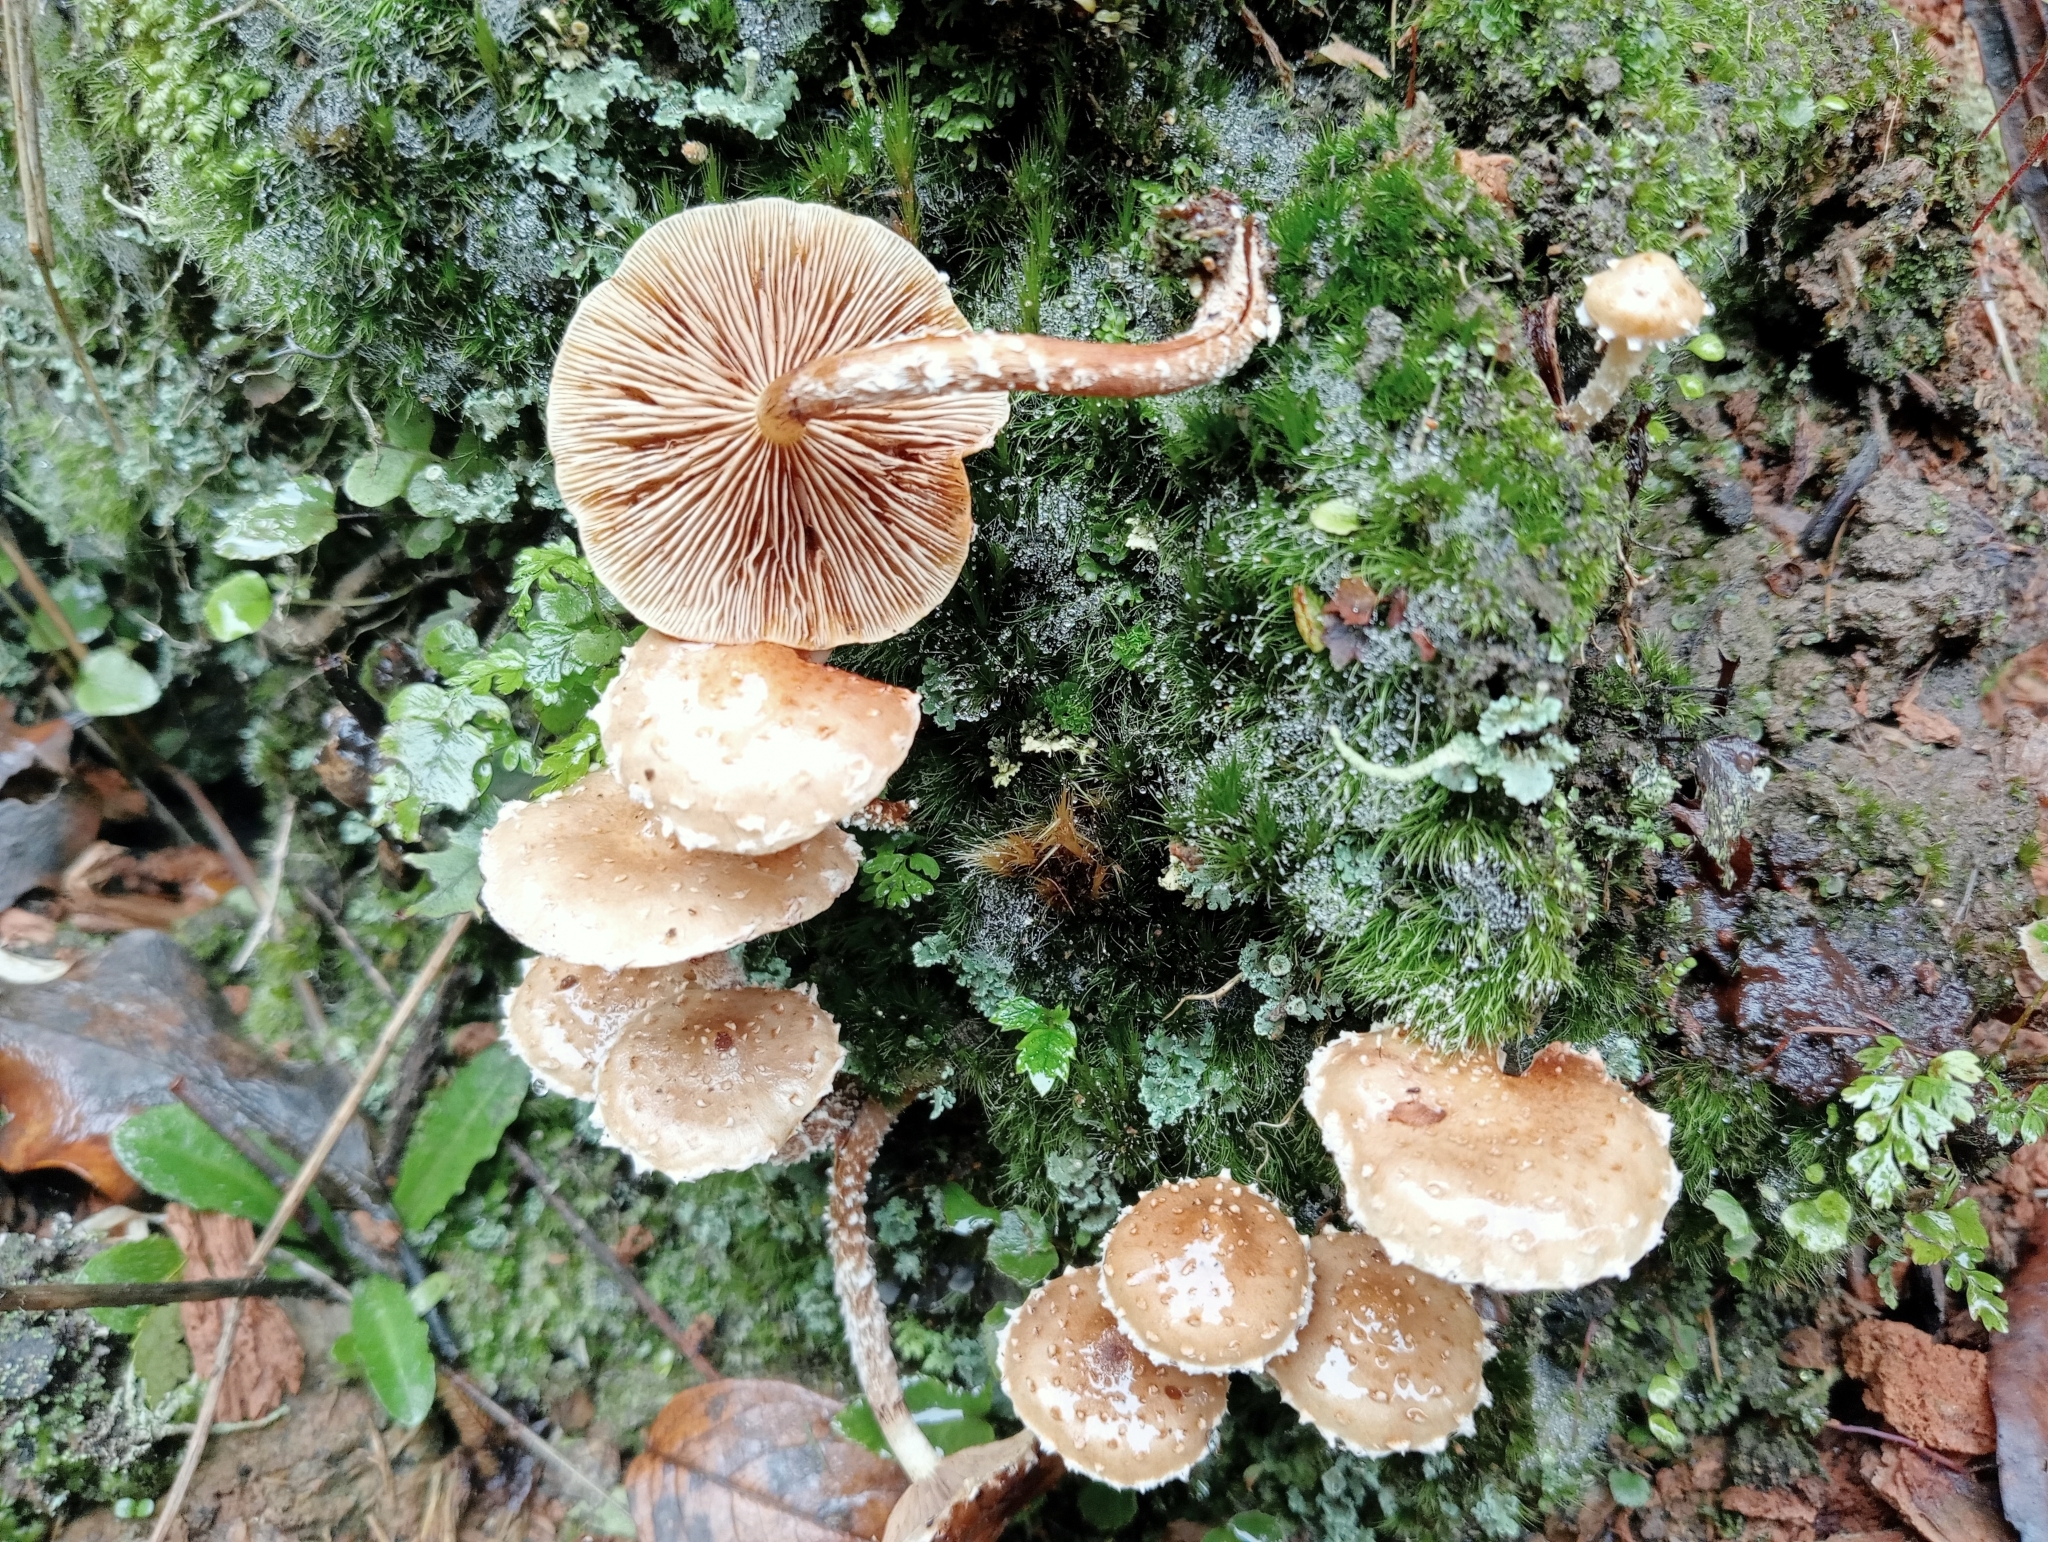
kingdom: Fungi
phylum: Basidiomycota
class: Agaricomycetes
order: Agaricales
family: Strophariaceae
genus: Pholiota
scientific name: Pholiota subflammans
